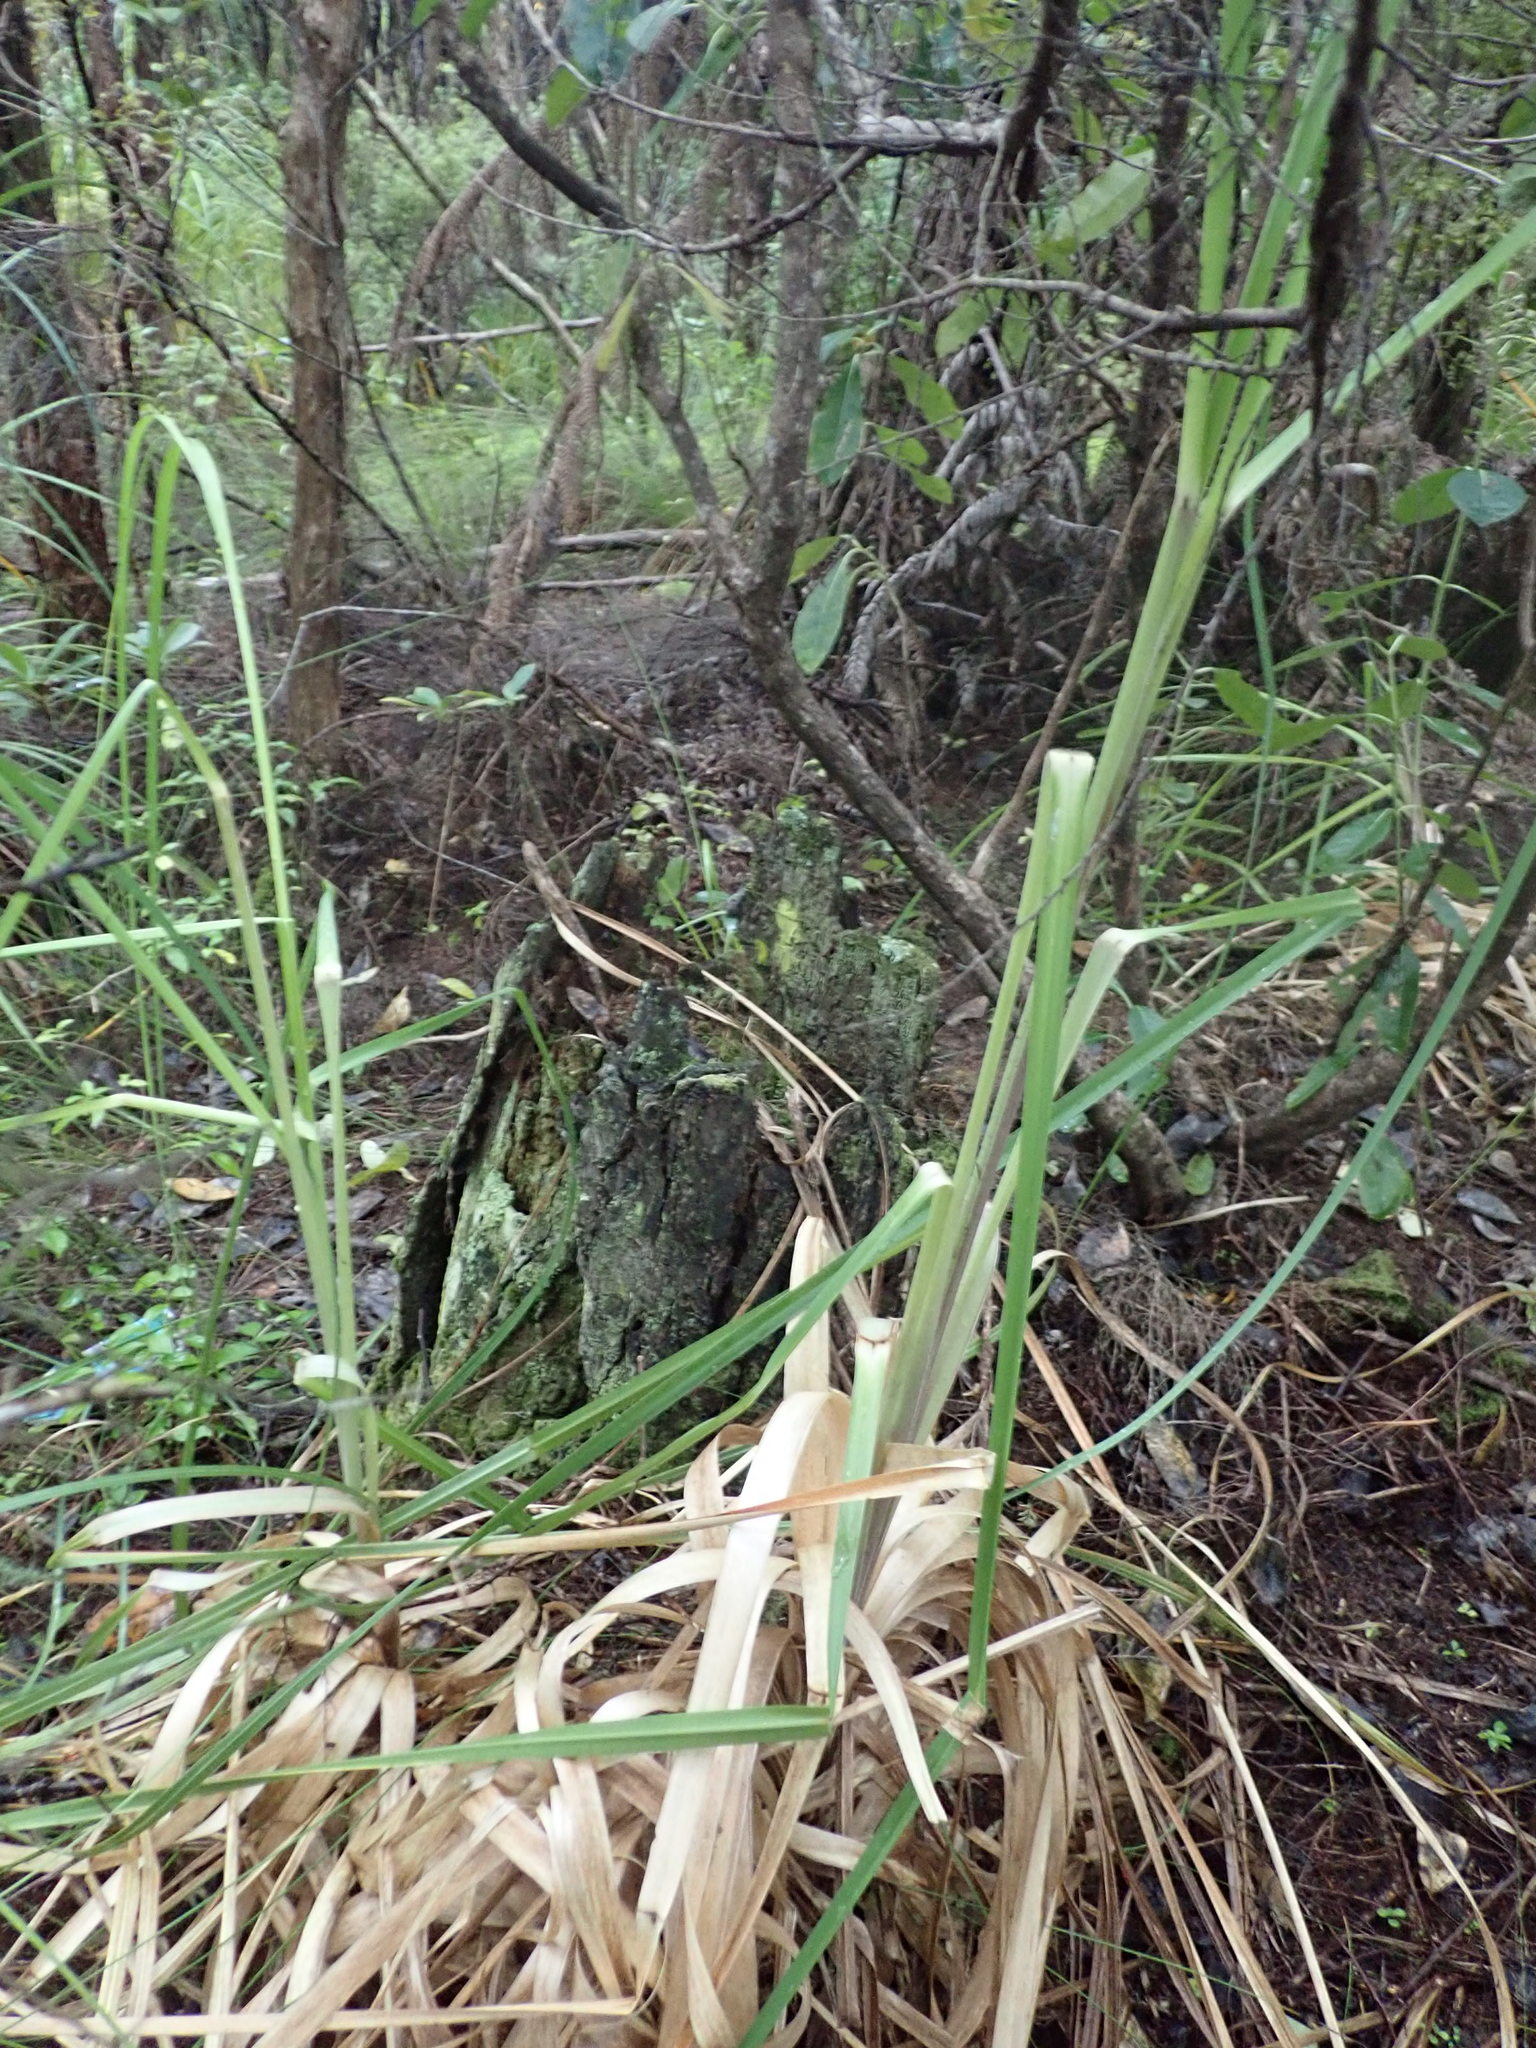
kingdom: Plantae
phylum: Tracheophyta
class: Liliopsida
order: Poales
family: Poaceae
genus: Cortaderia
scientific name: Cortaderia selloana
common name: Uruguayan pampas grass
